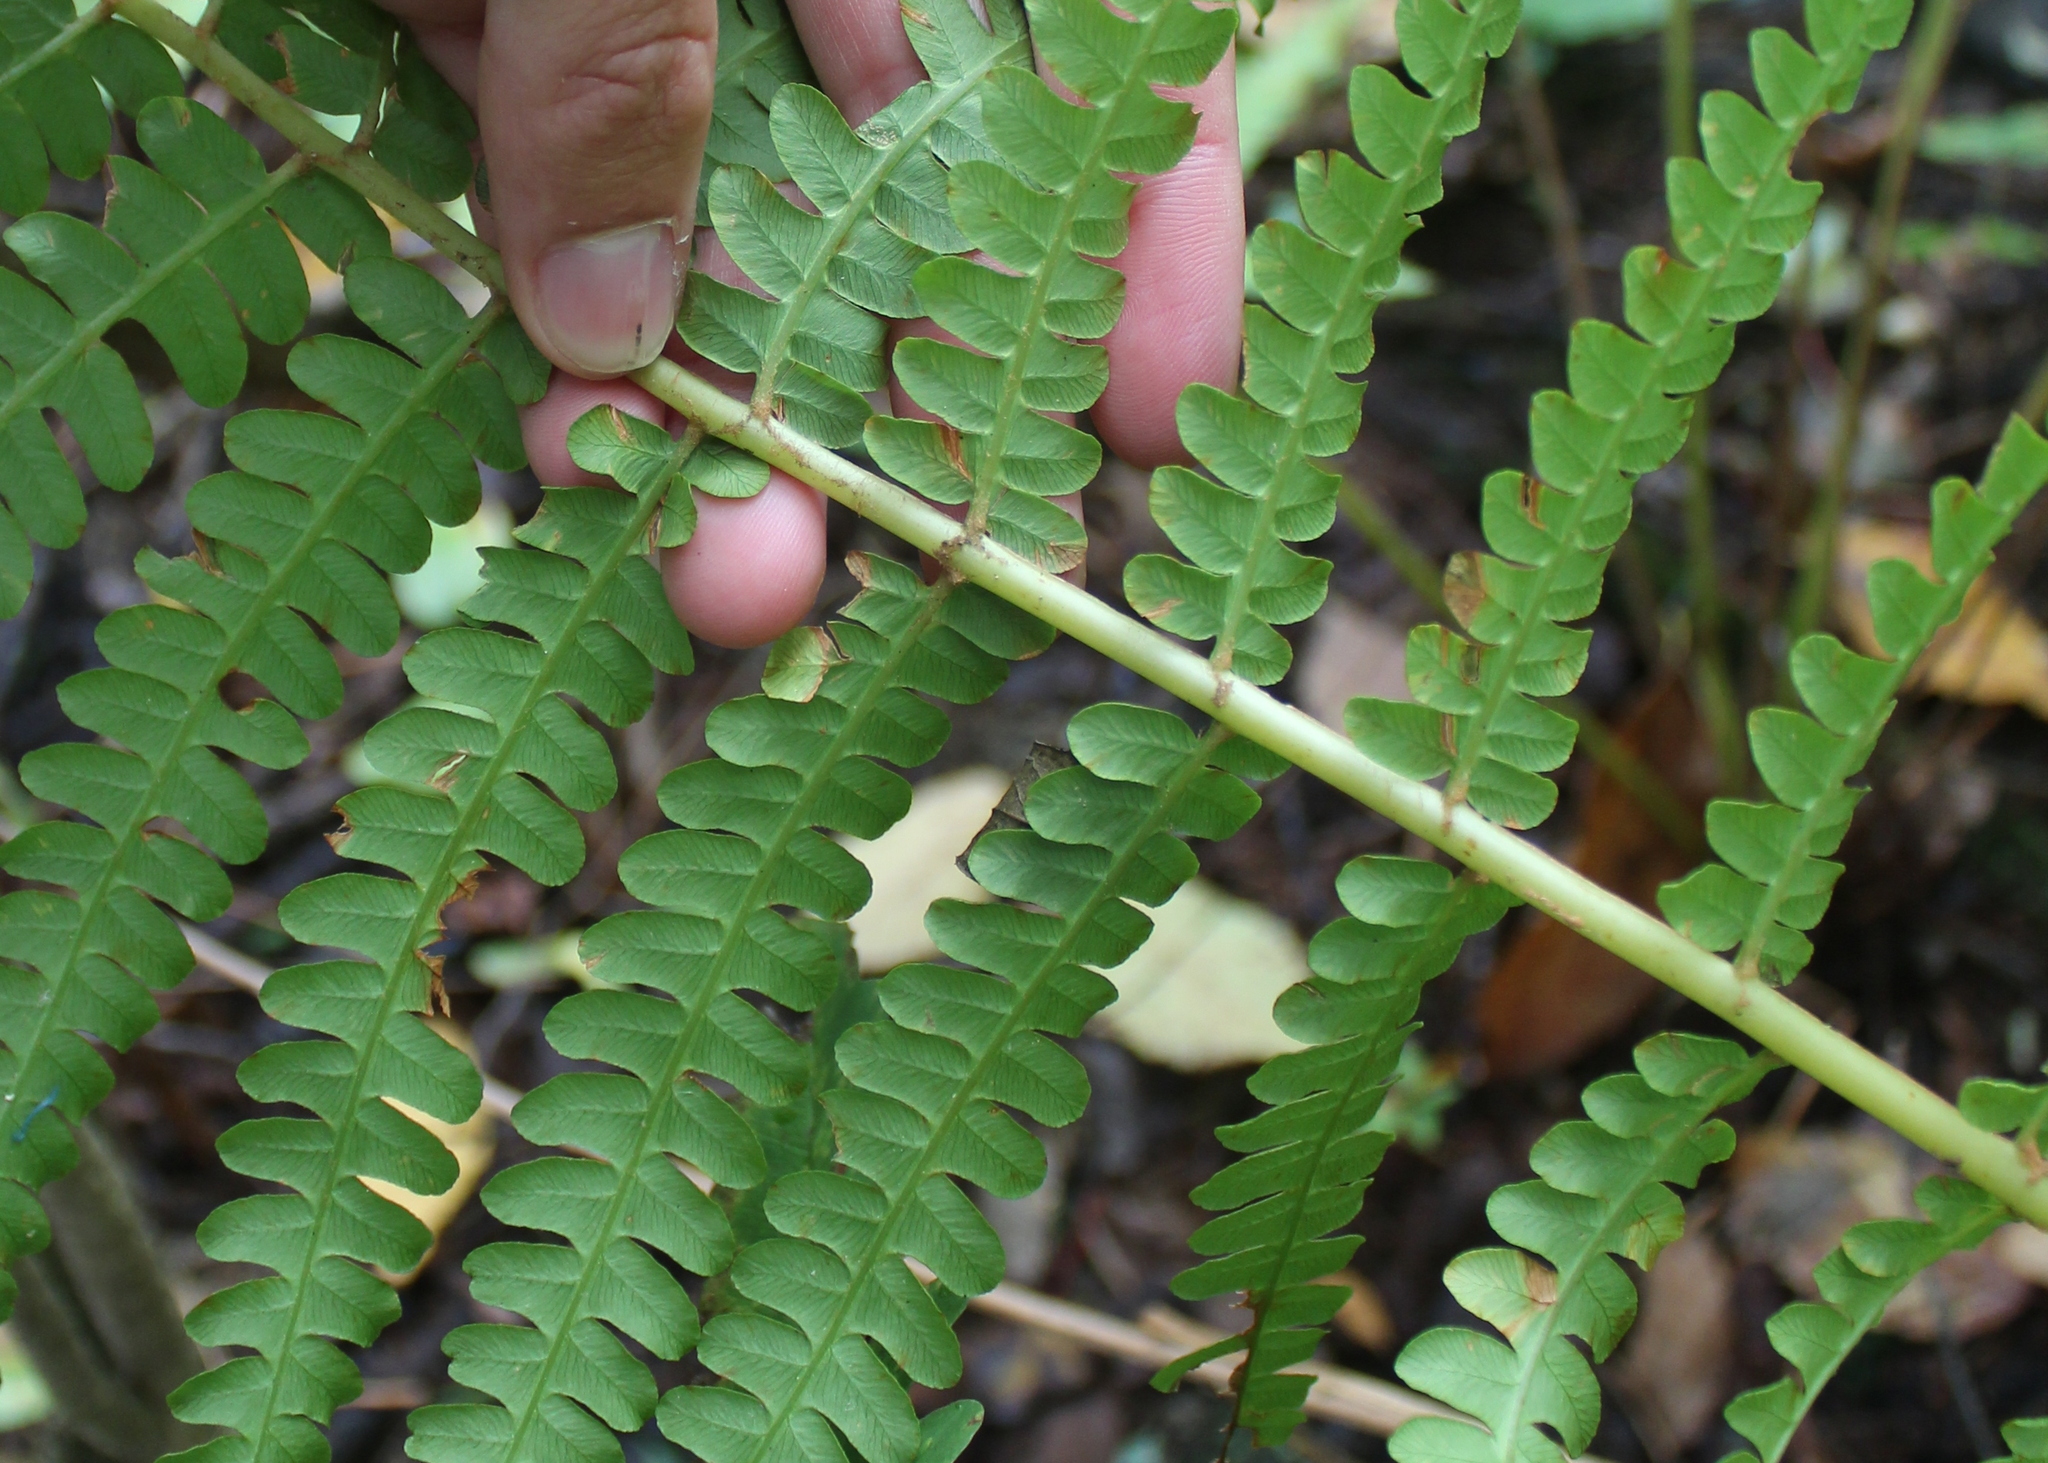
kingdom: Plantae
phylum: Tracheophyta
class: Polypodiopsida
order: Osmundales
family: Osmundaceae
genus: Osmundastrum
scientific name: Osmundastrum cinnamomeum
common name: Cinnamon fern
